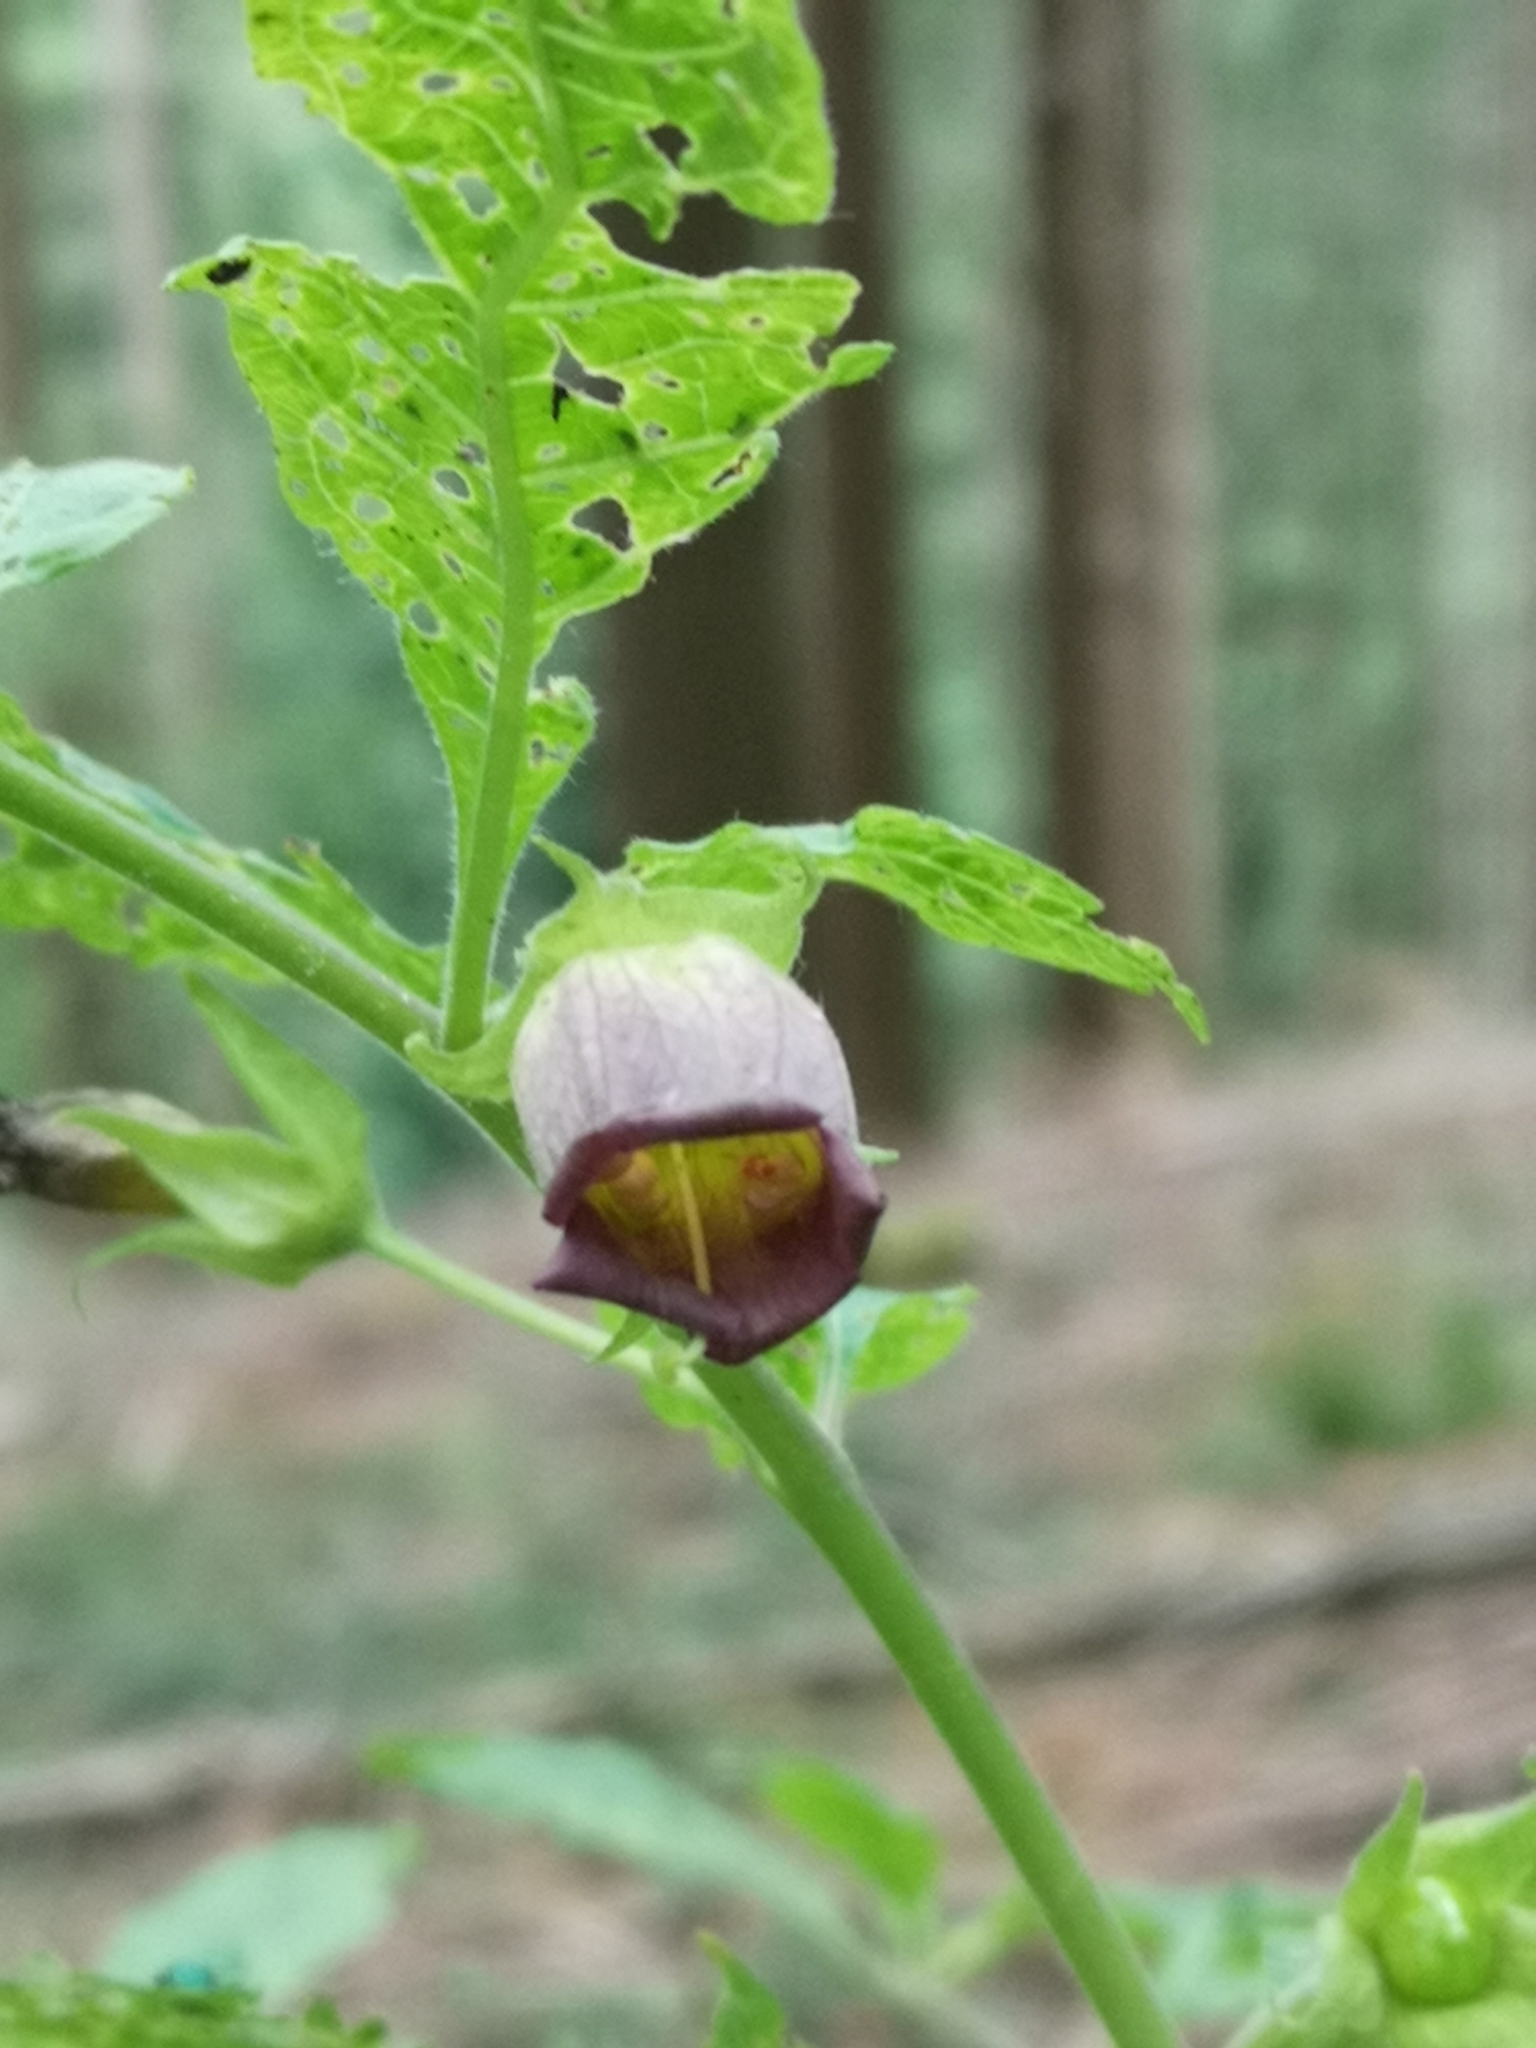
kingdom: Plantae
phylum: Tracheophyta
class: Magnoliopsida
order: Solanales
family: Solanaceae
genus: Atropa
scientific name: Atropa belladonna
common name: Deadly nightshade
